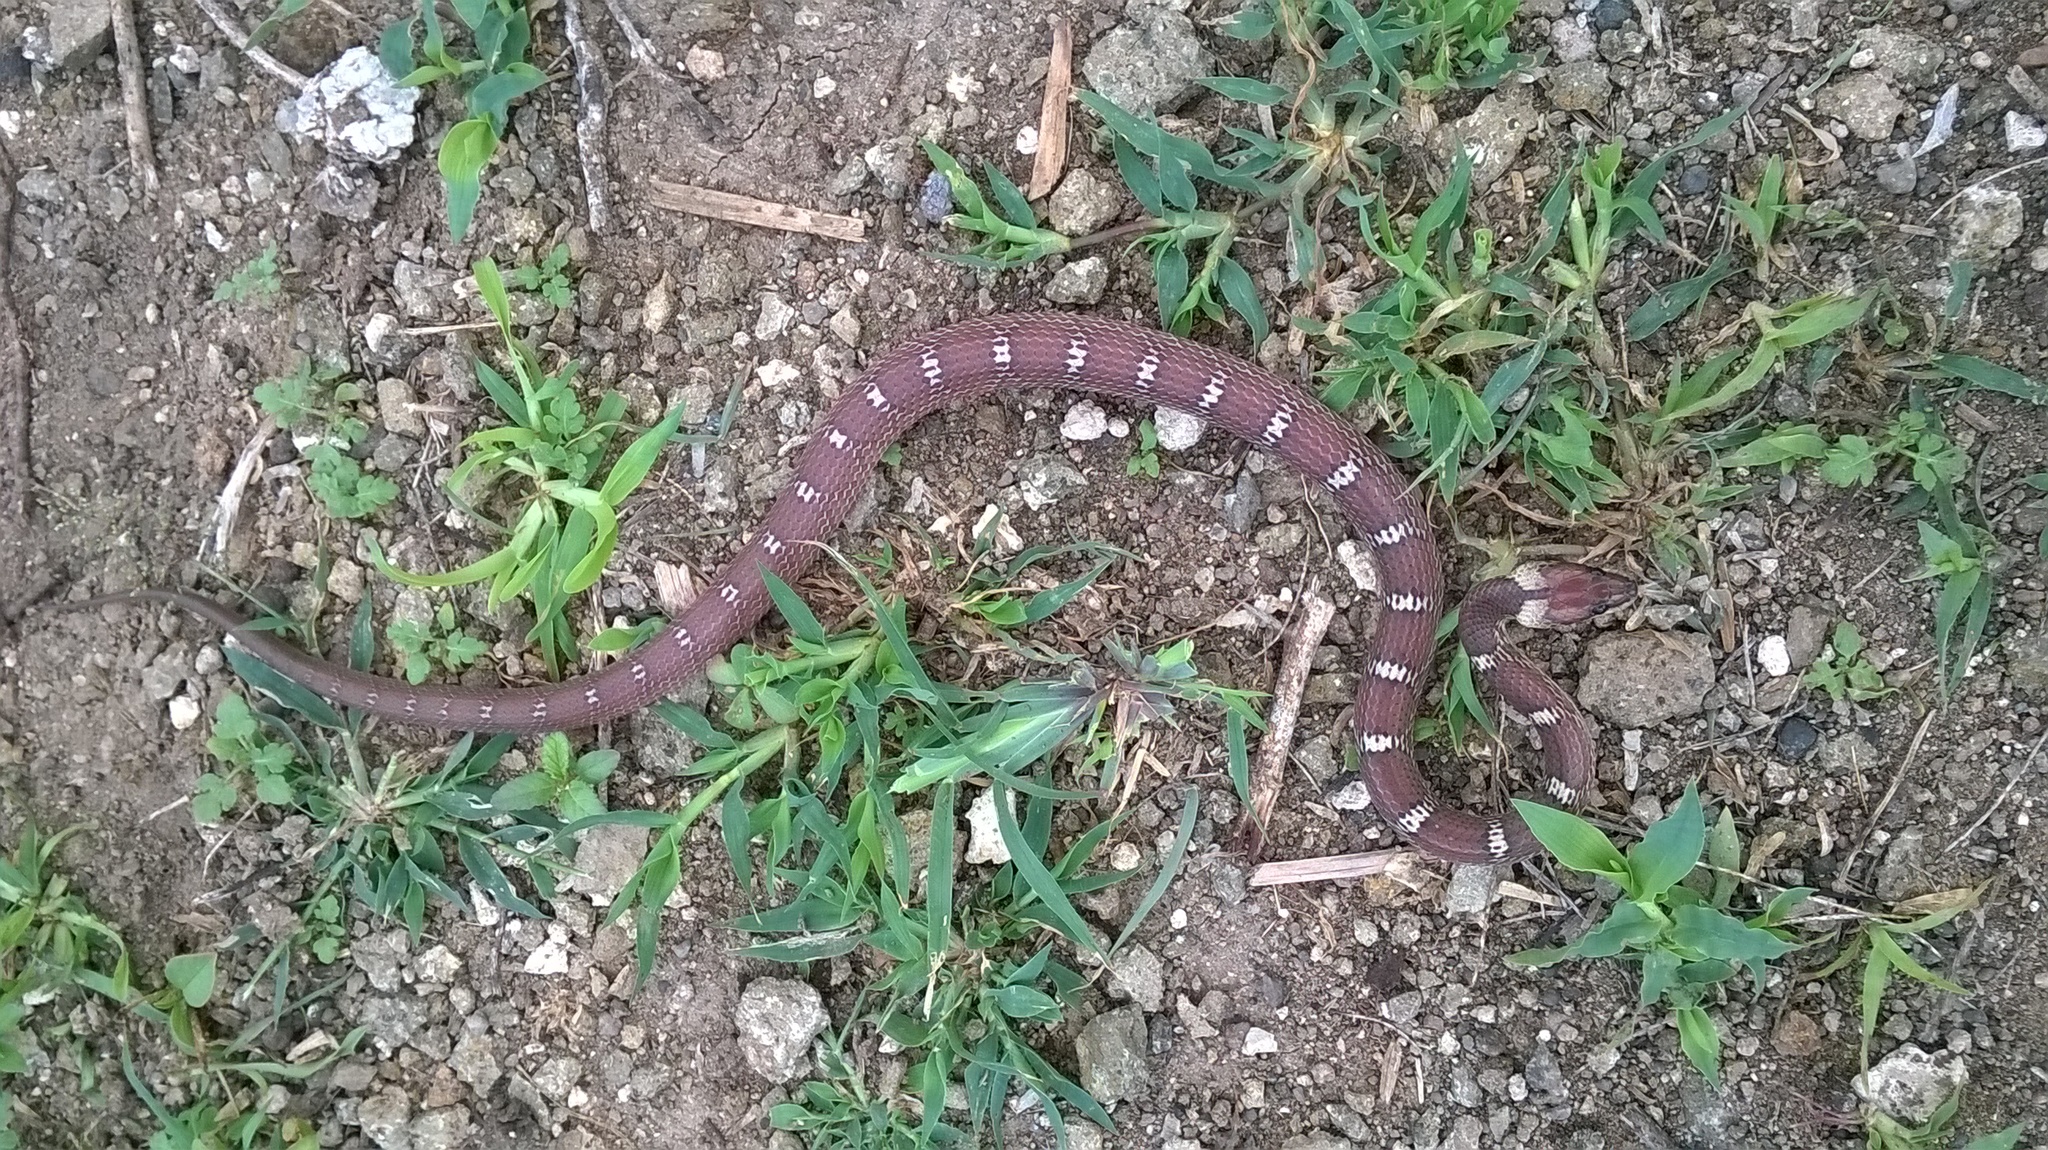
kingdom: Animalia
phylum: Chordata
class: Squamata
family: Colubridae
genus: Lycodon
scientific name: Lycodon aulicus
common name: Common wolf snake
